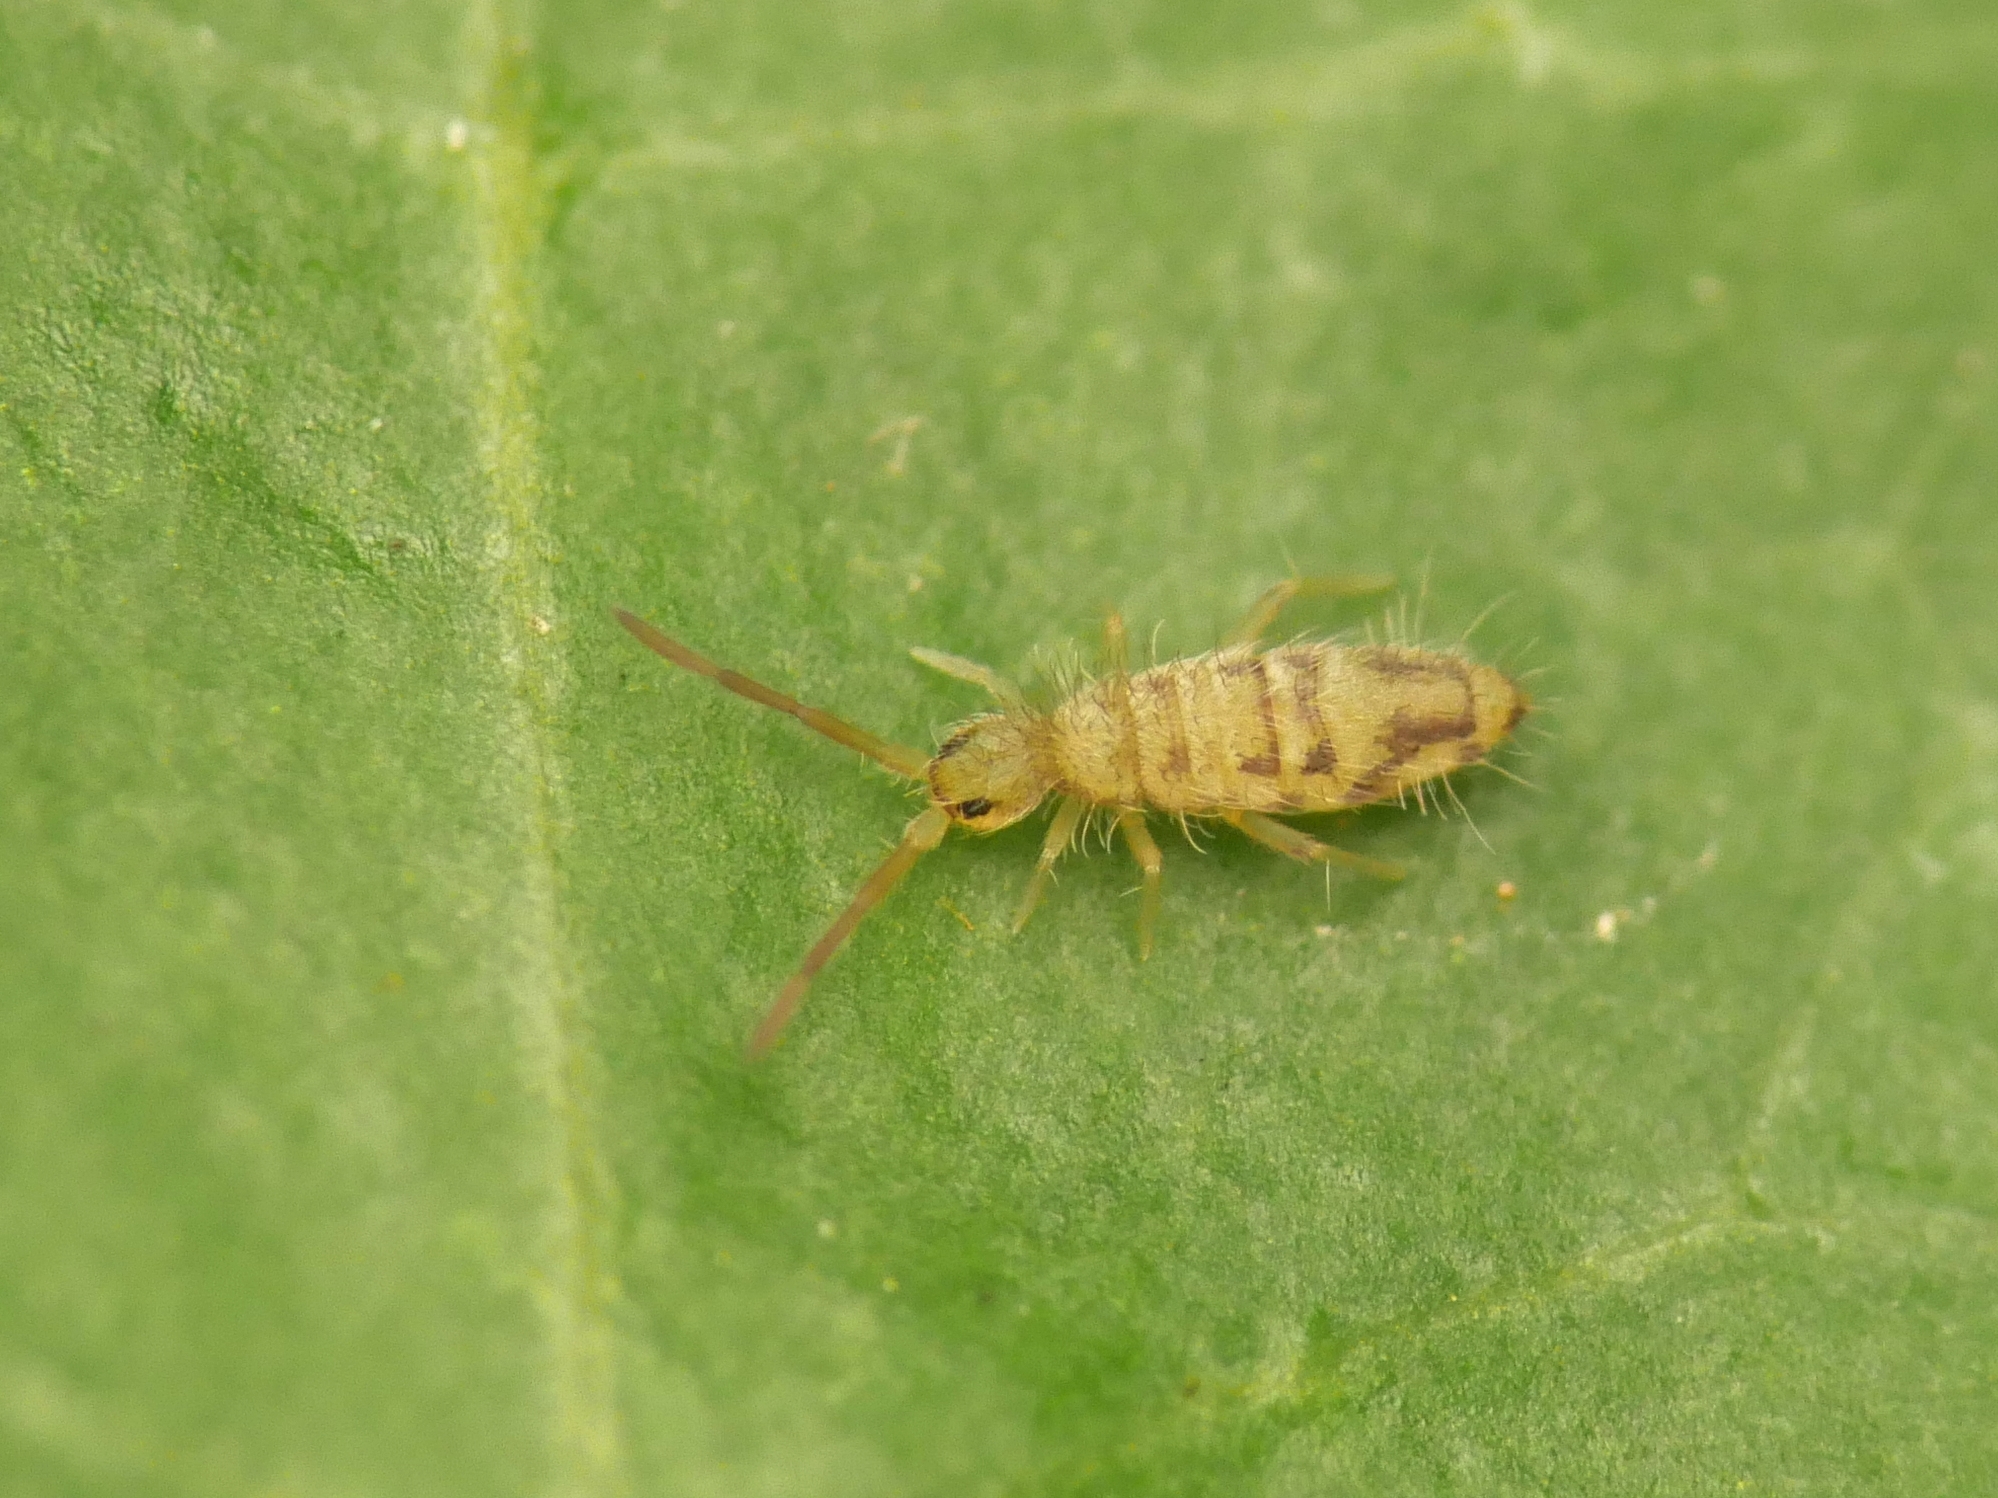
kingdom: Animalia
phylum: Arthropoda
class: Collembola
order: Entomobryomorpha
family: Entomobryidae
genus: Entomobrya
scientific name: Entomobrya nivalis
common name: Cosmopolitan springtail
